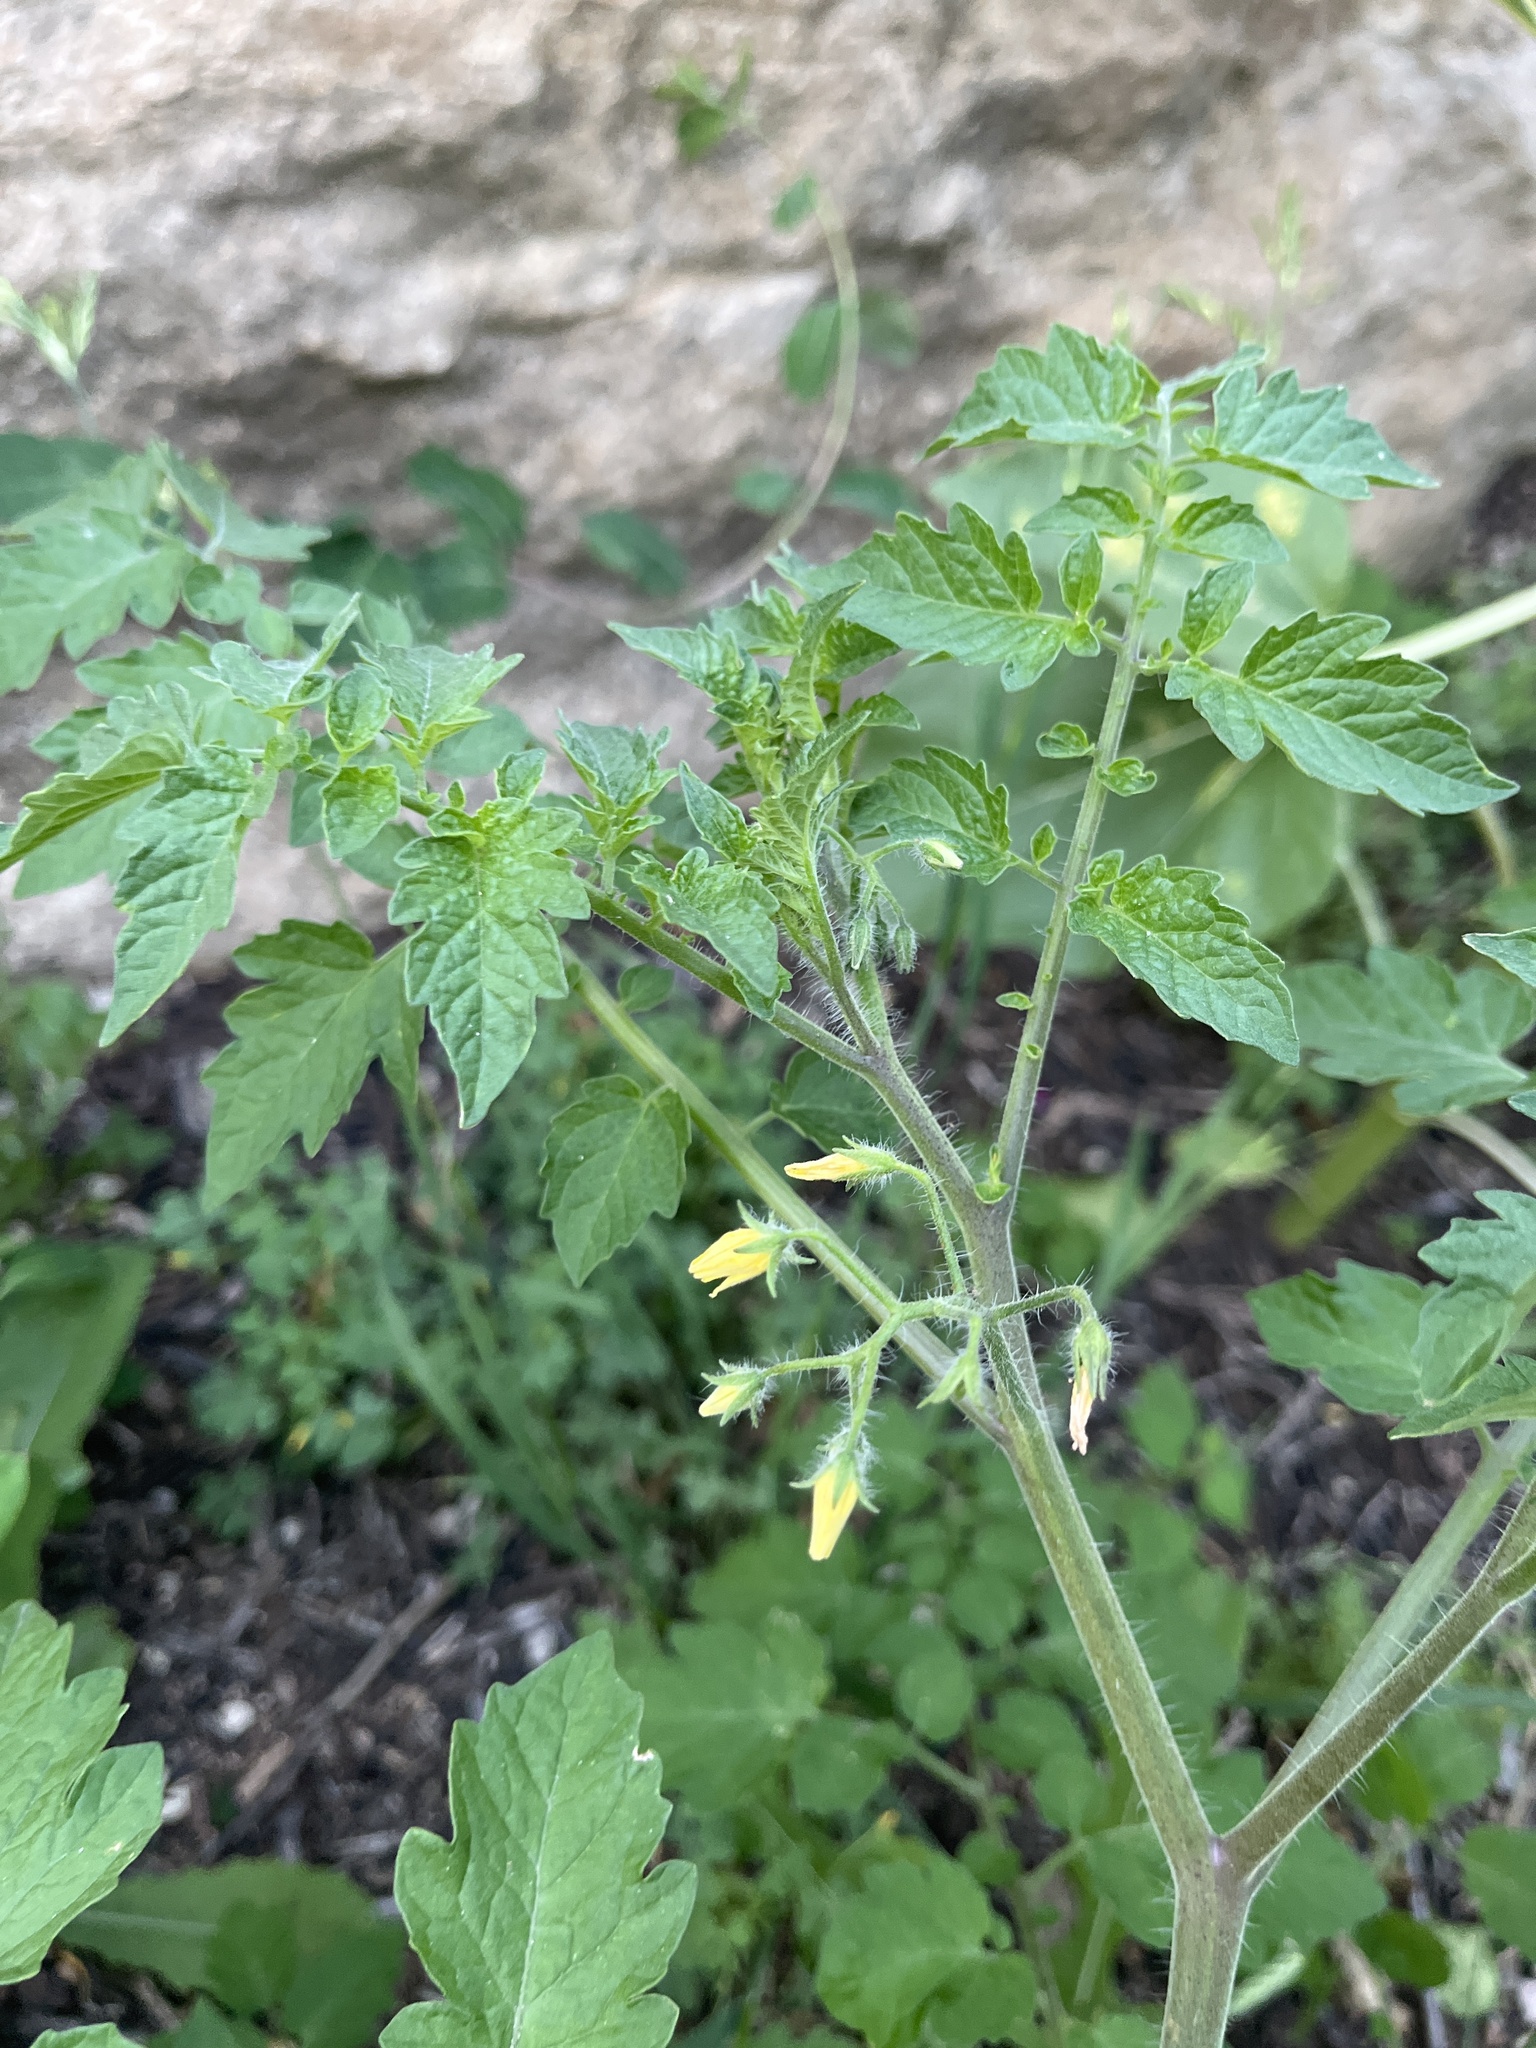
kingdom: Plantae
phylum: Tracheophyta
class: Magnoliopsida
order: Solanales
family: Solanaceae
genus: Solanum
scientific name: Solanum lycopersicum
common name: Garden tomato
